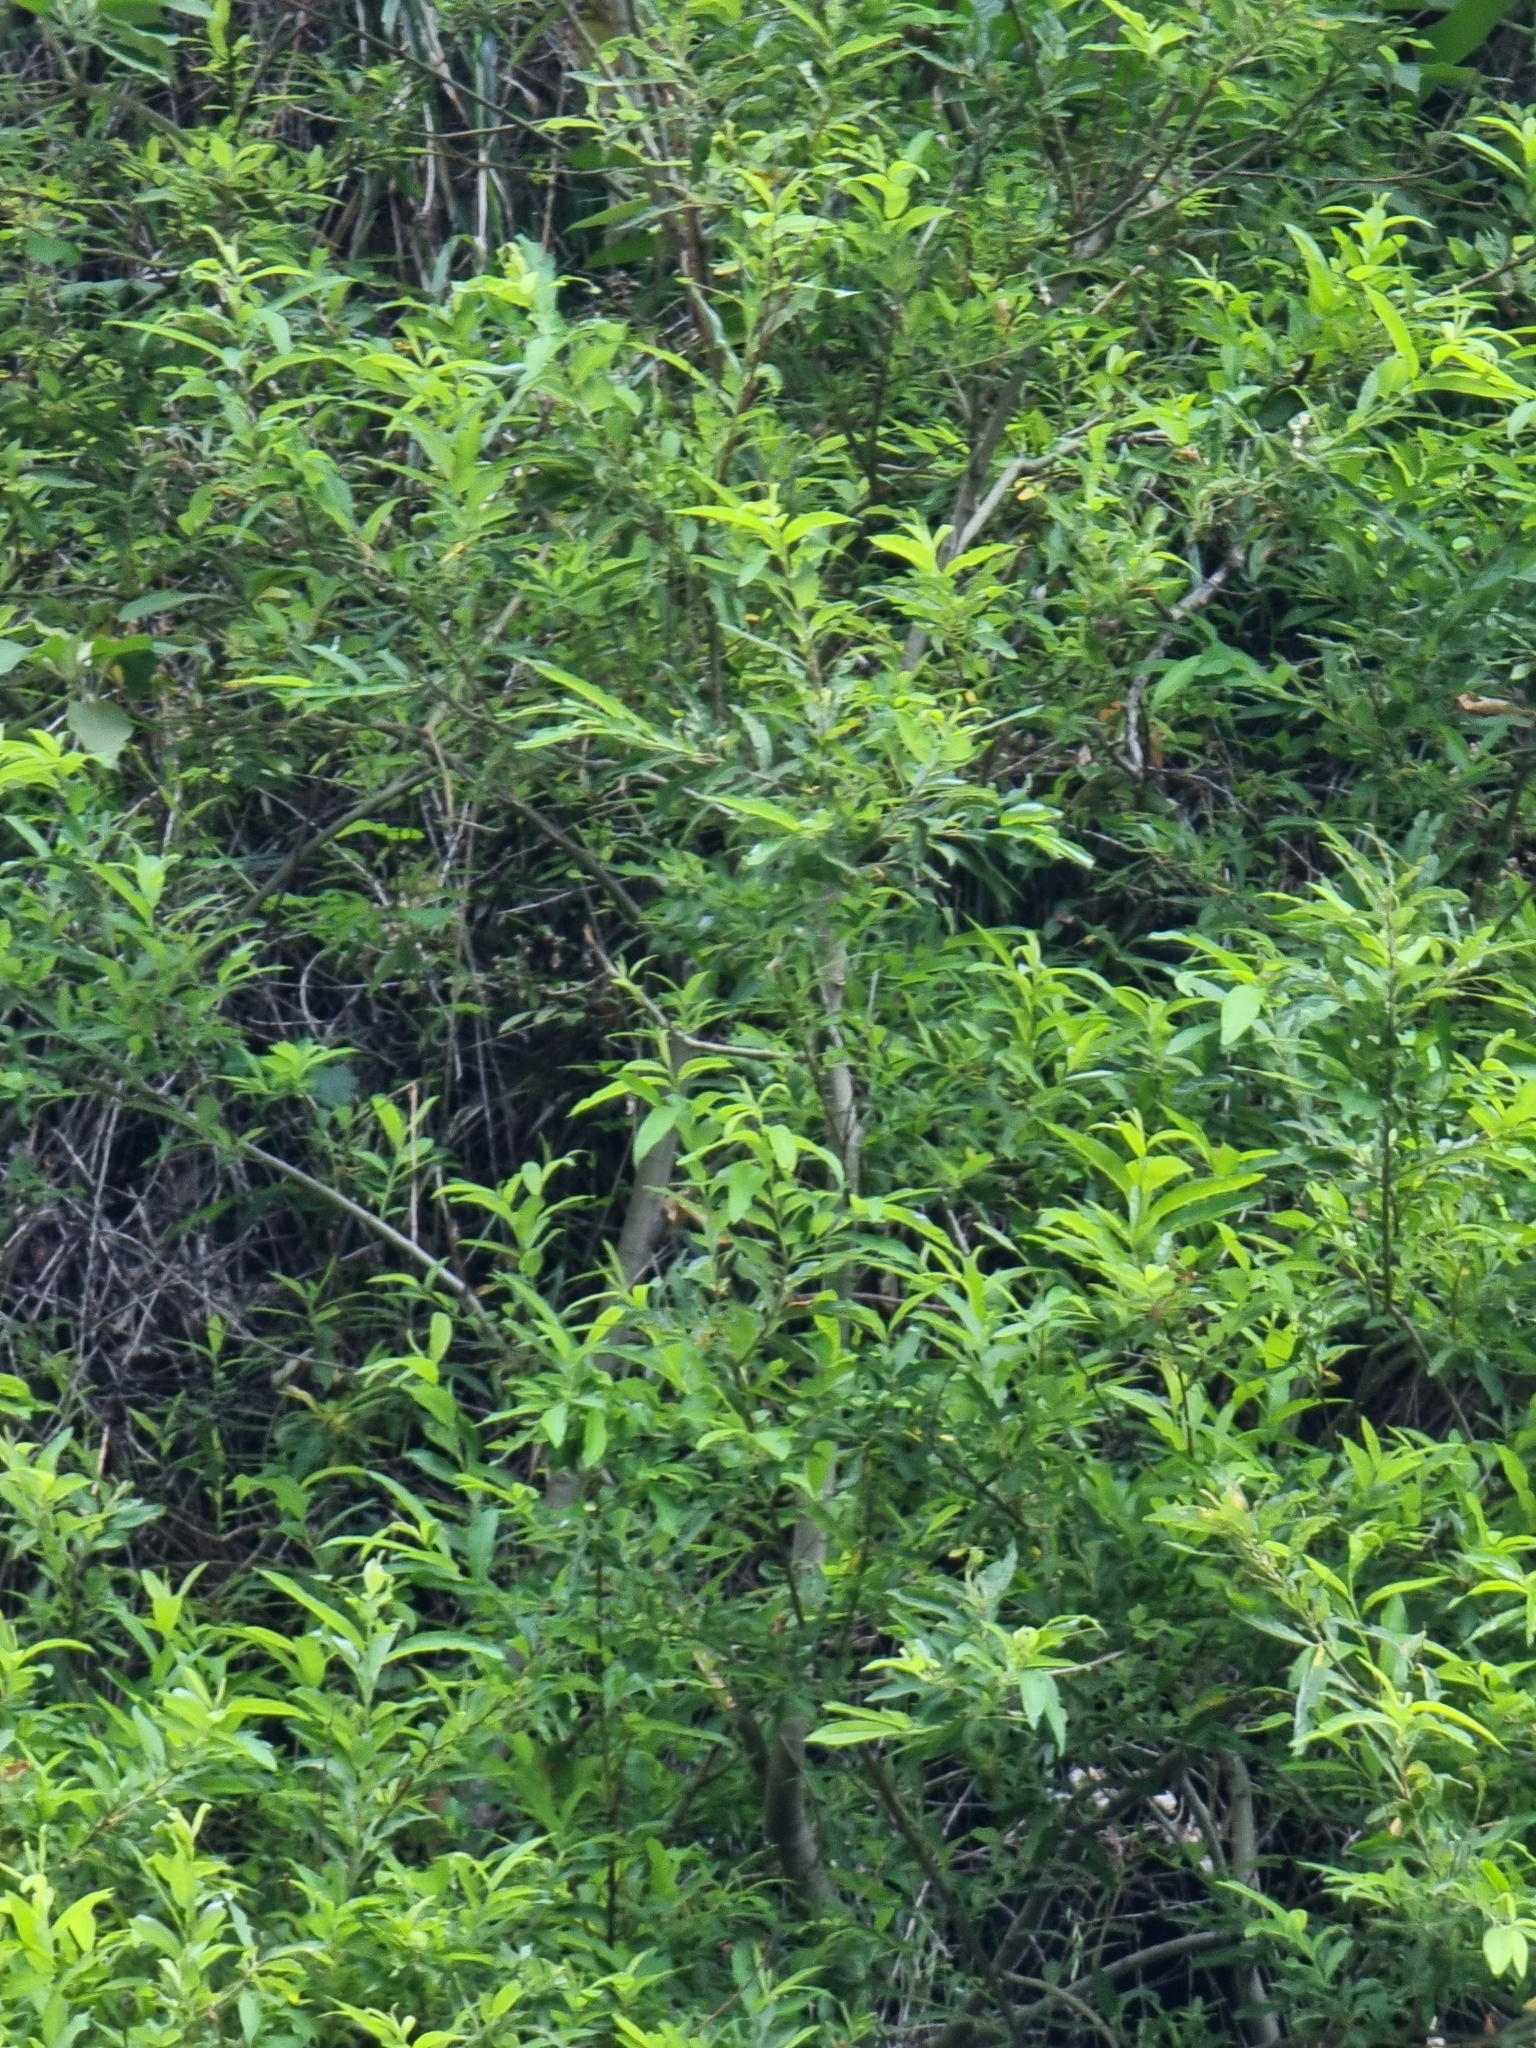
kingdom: Plantae
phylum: Tracheophyta
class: Magnoliopsida
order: Malpighiales
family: Salicaceae
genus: Salix
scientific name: Salix canariensis
